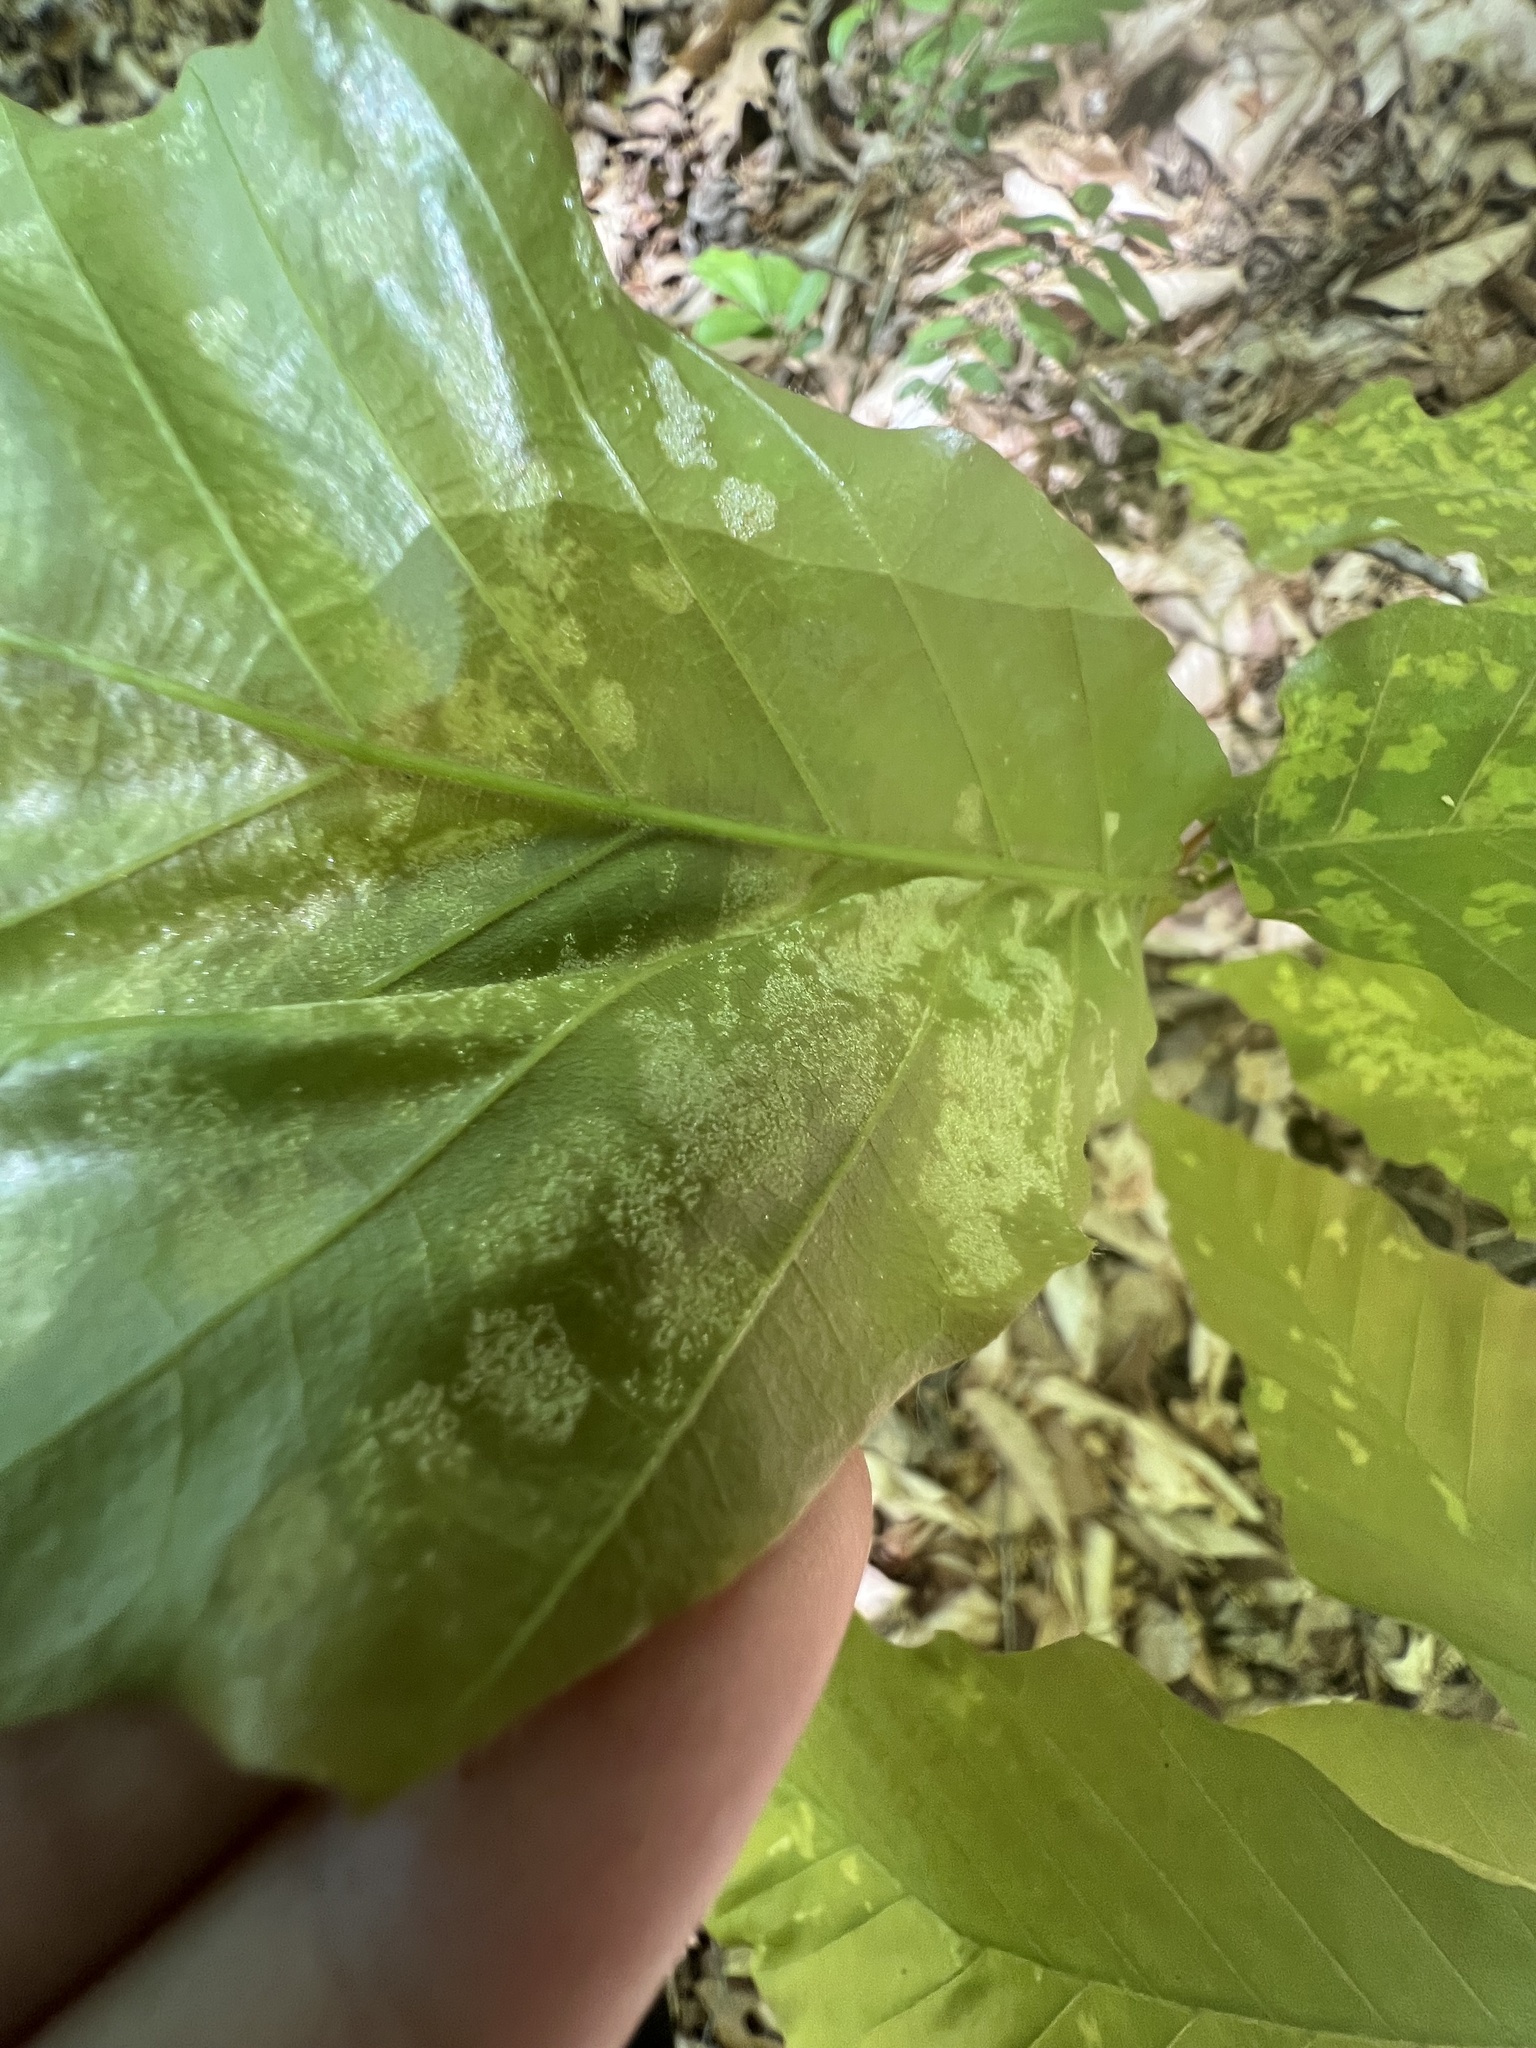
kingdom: Animalia
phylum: Arthropoda
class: Arachnida
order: Trombidiformes
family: Eriophyidae
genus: Acalitus
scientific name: Acalitus
